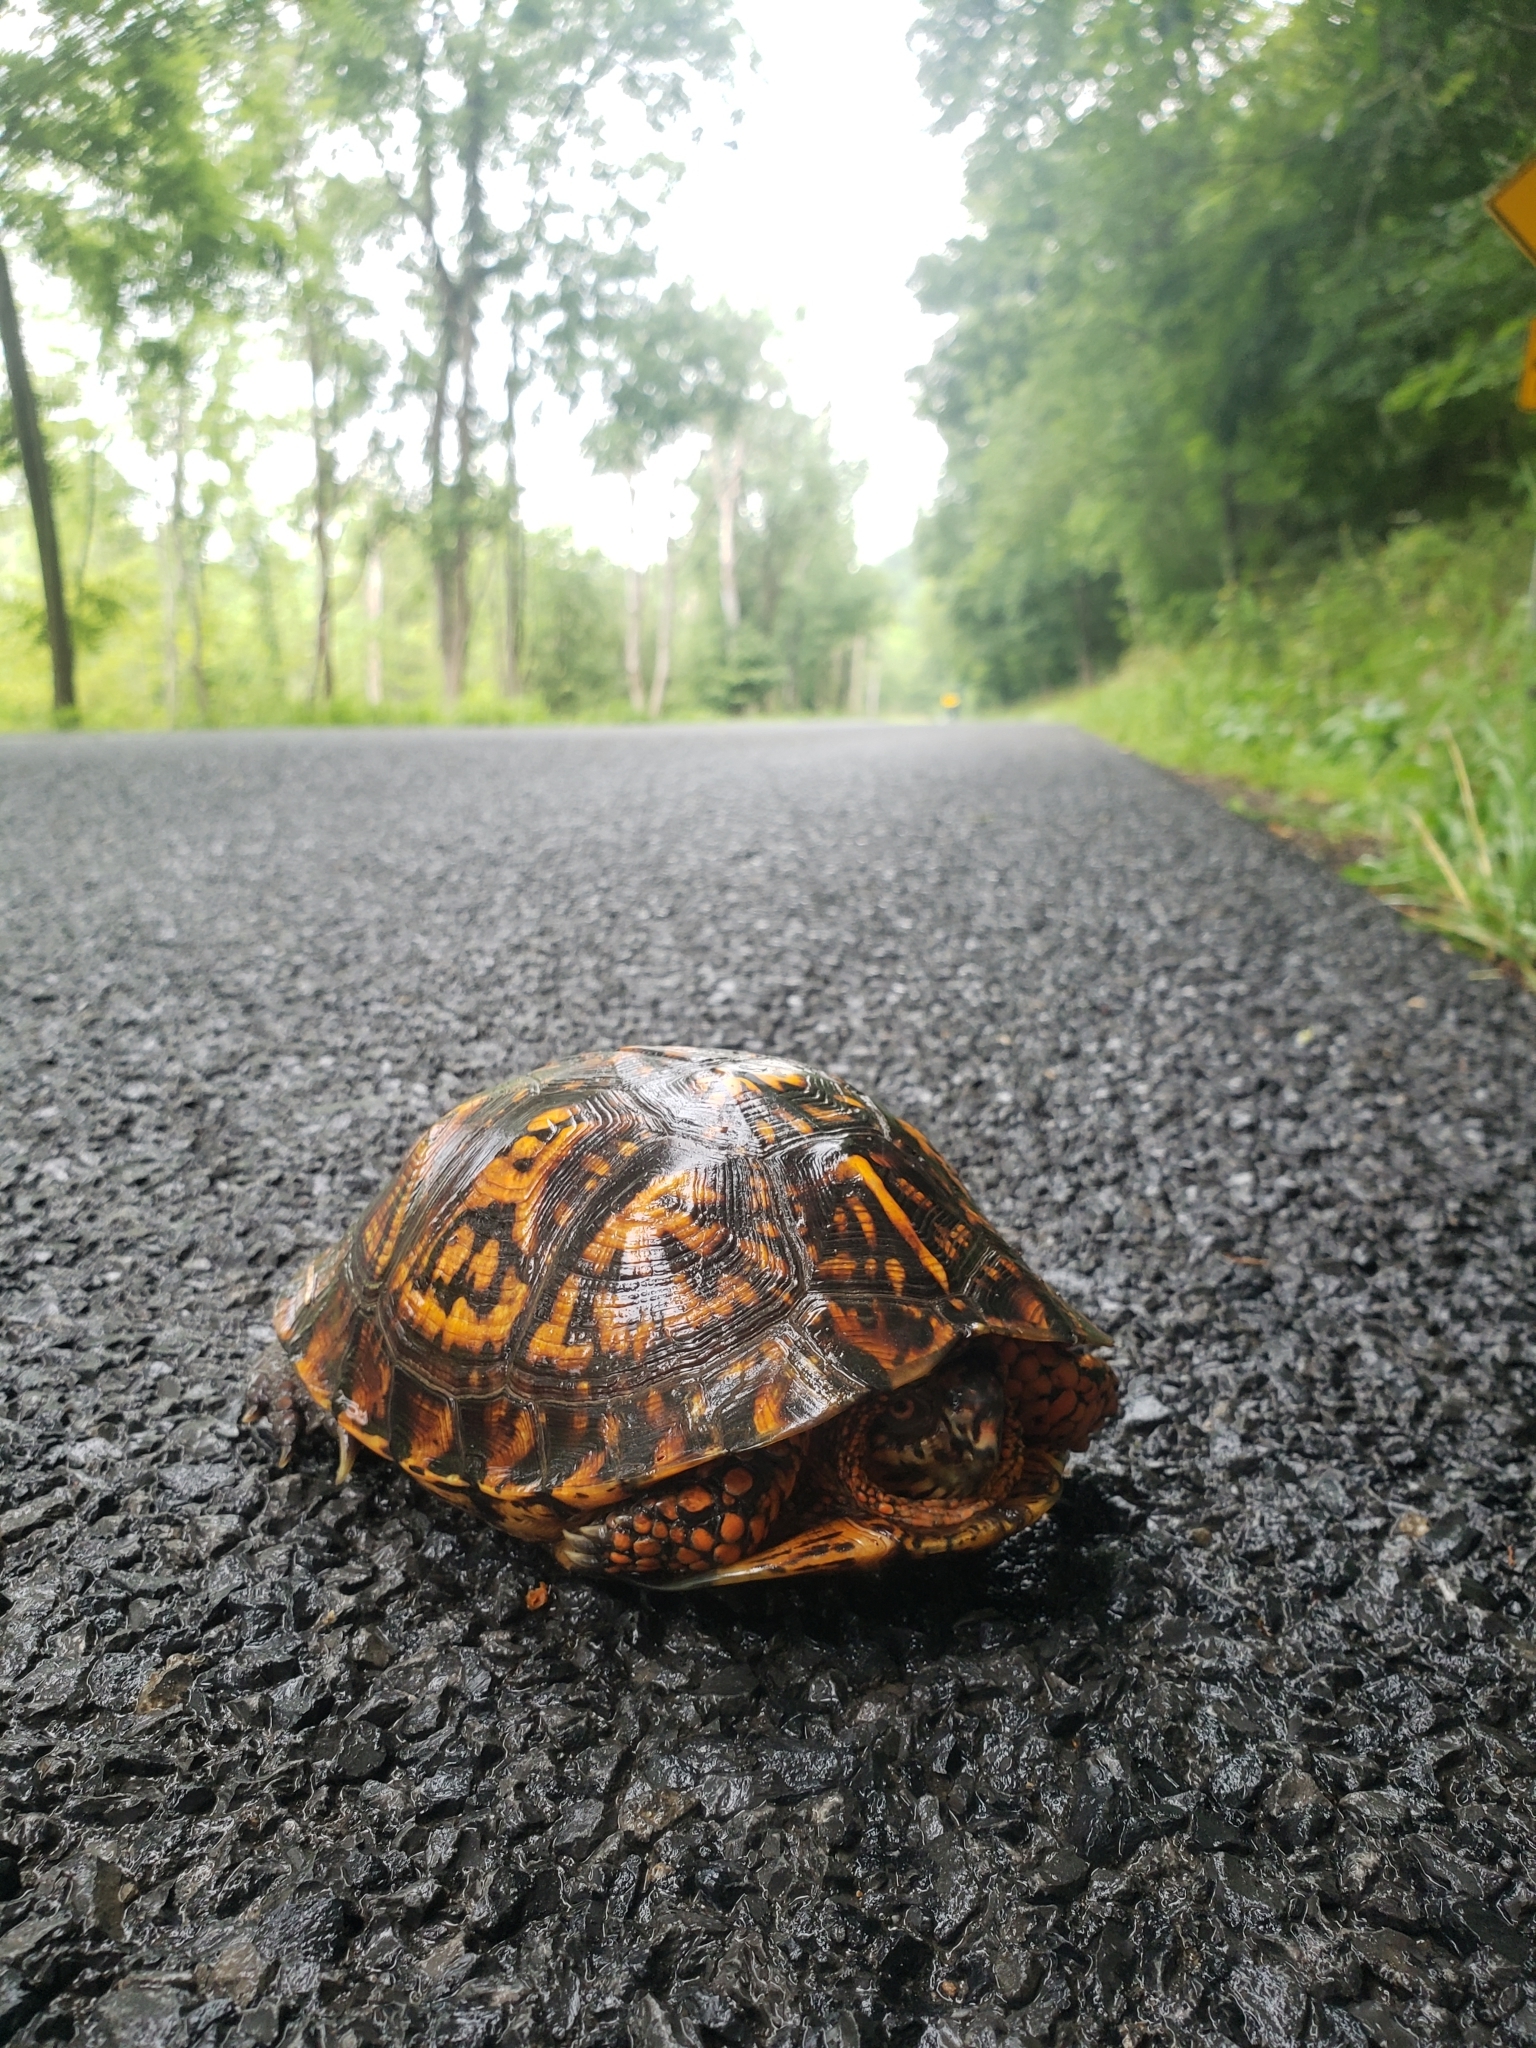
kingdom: Animalia
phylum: Chordata
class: Testudines
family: Emydidae
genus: Terrapene
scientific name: Terrapene carolina
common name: Common box turtle
